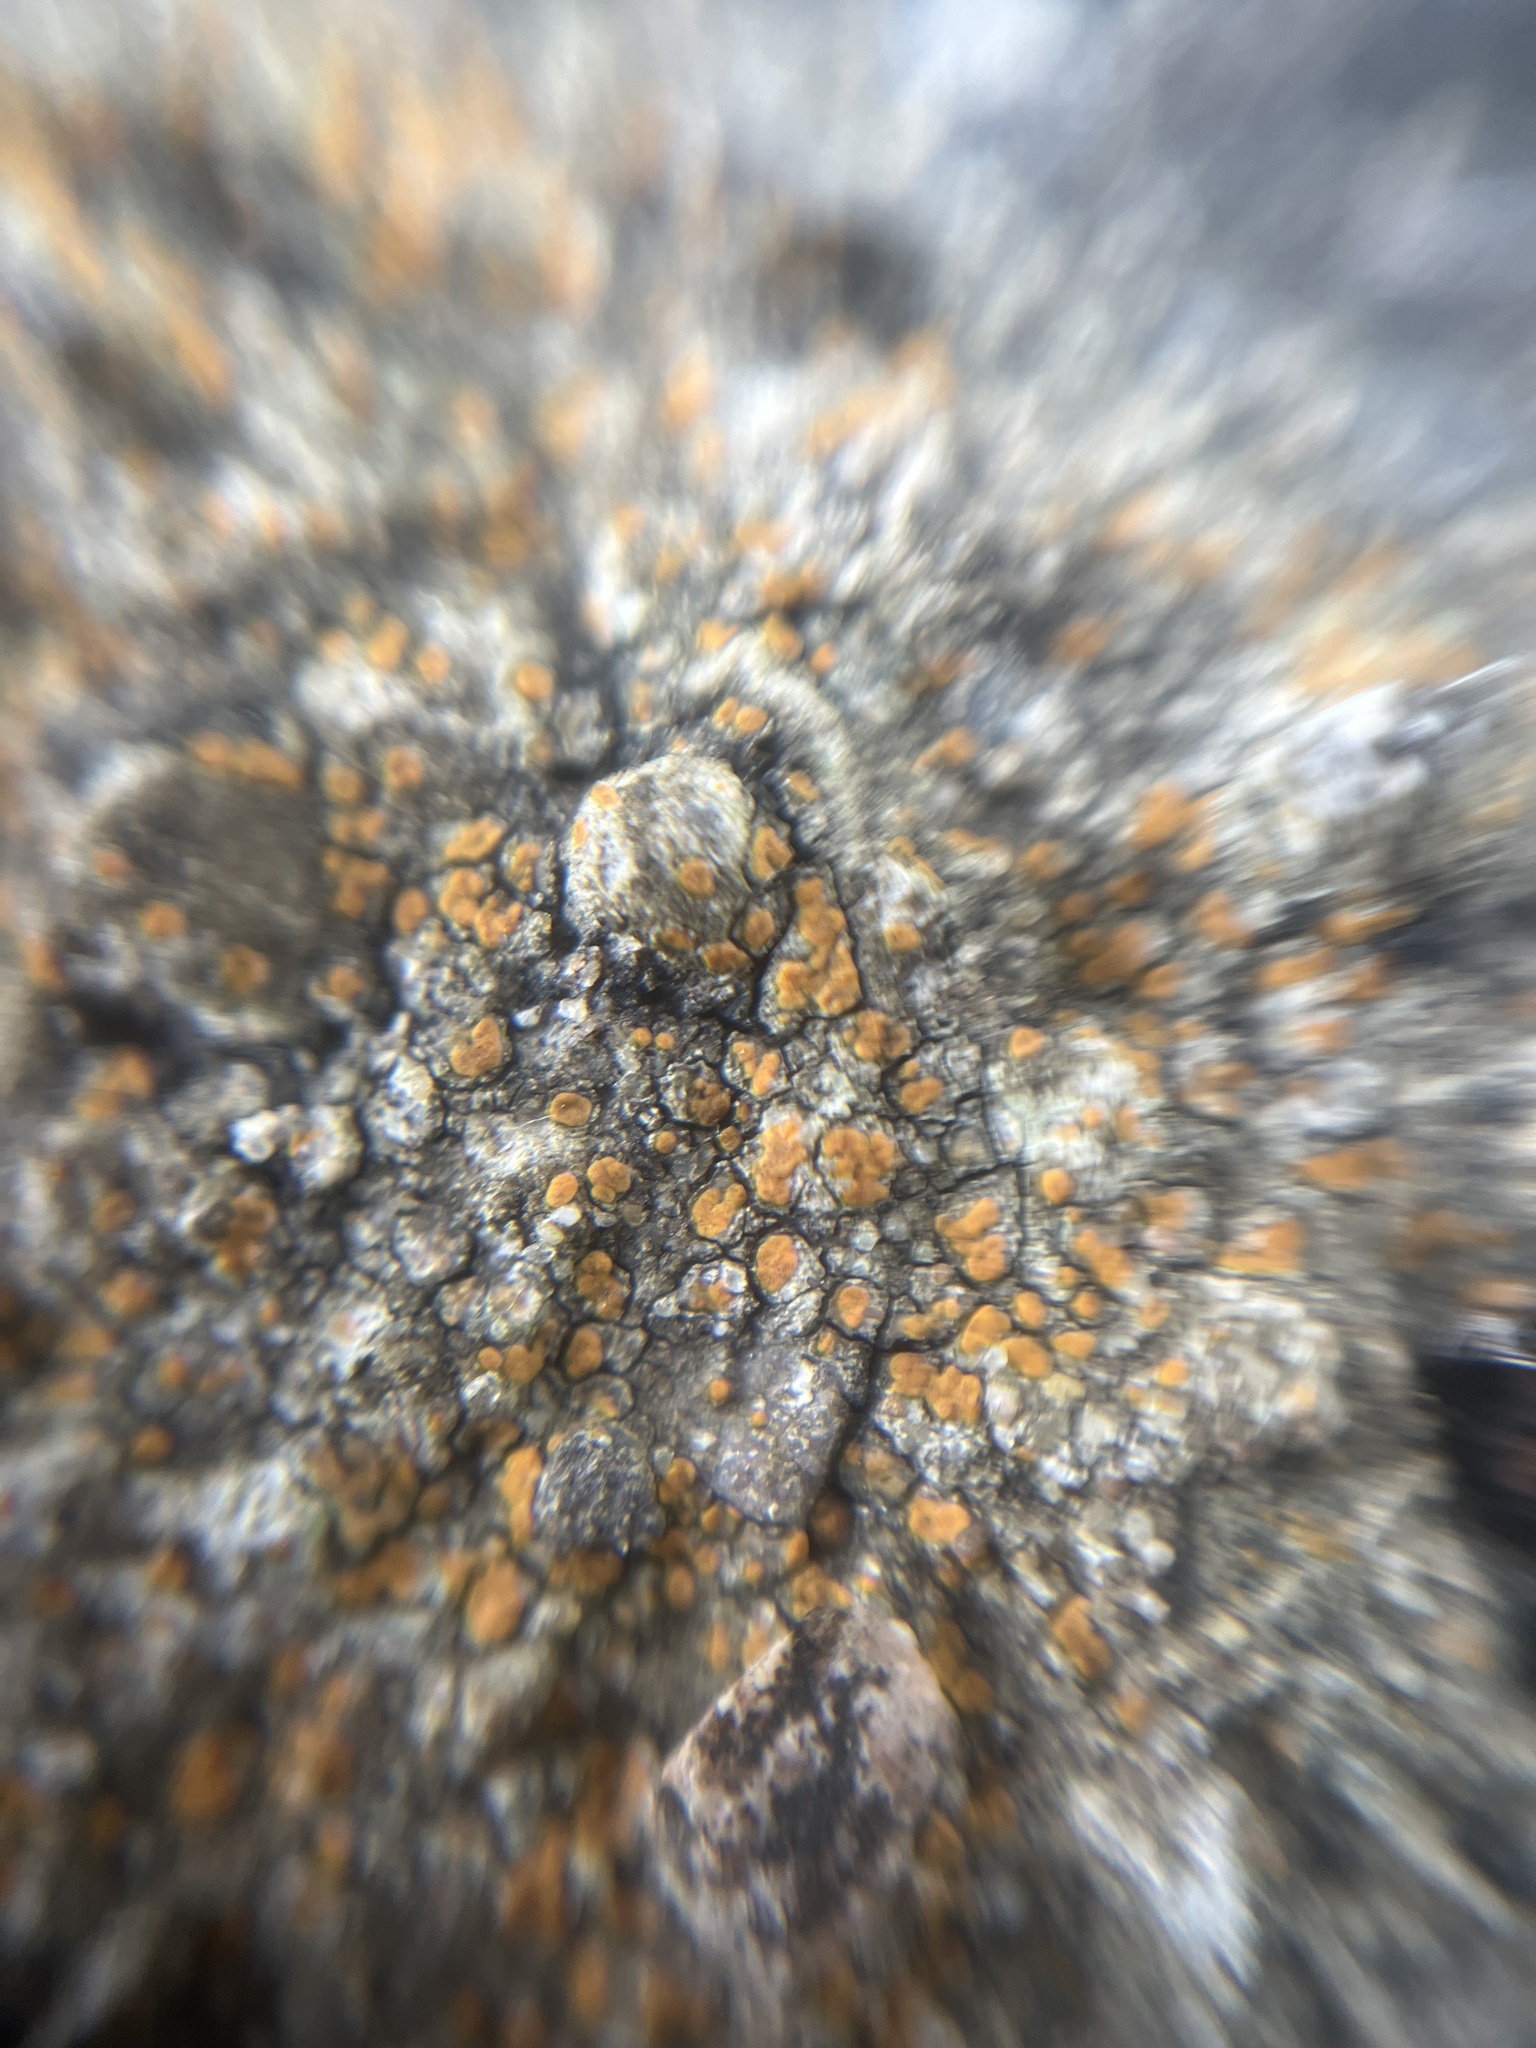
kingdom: Fungi
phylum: Ascomycota
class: Lecanoromycetes
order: Lecanorales
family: Psoraceae
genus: Protoblastenia
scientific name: Protoblastenia rupestris
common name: Chewing gum lichen
